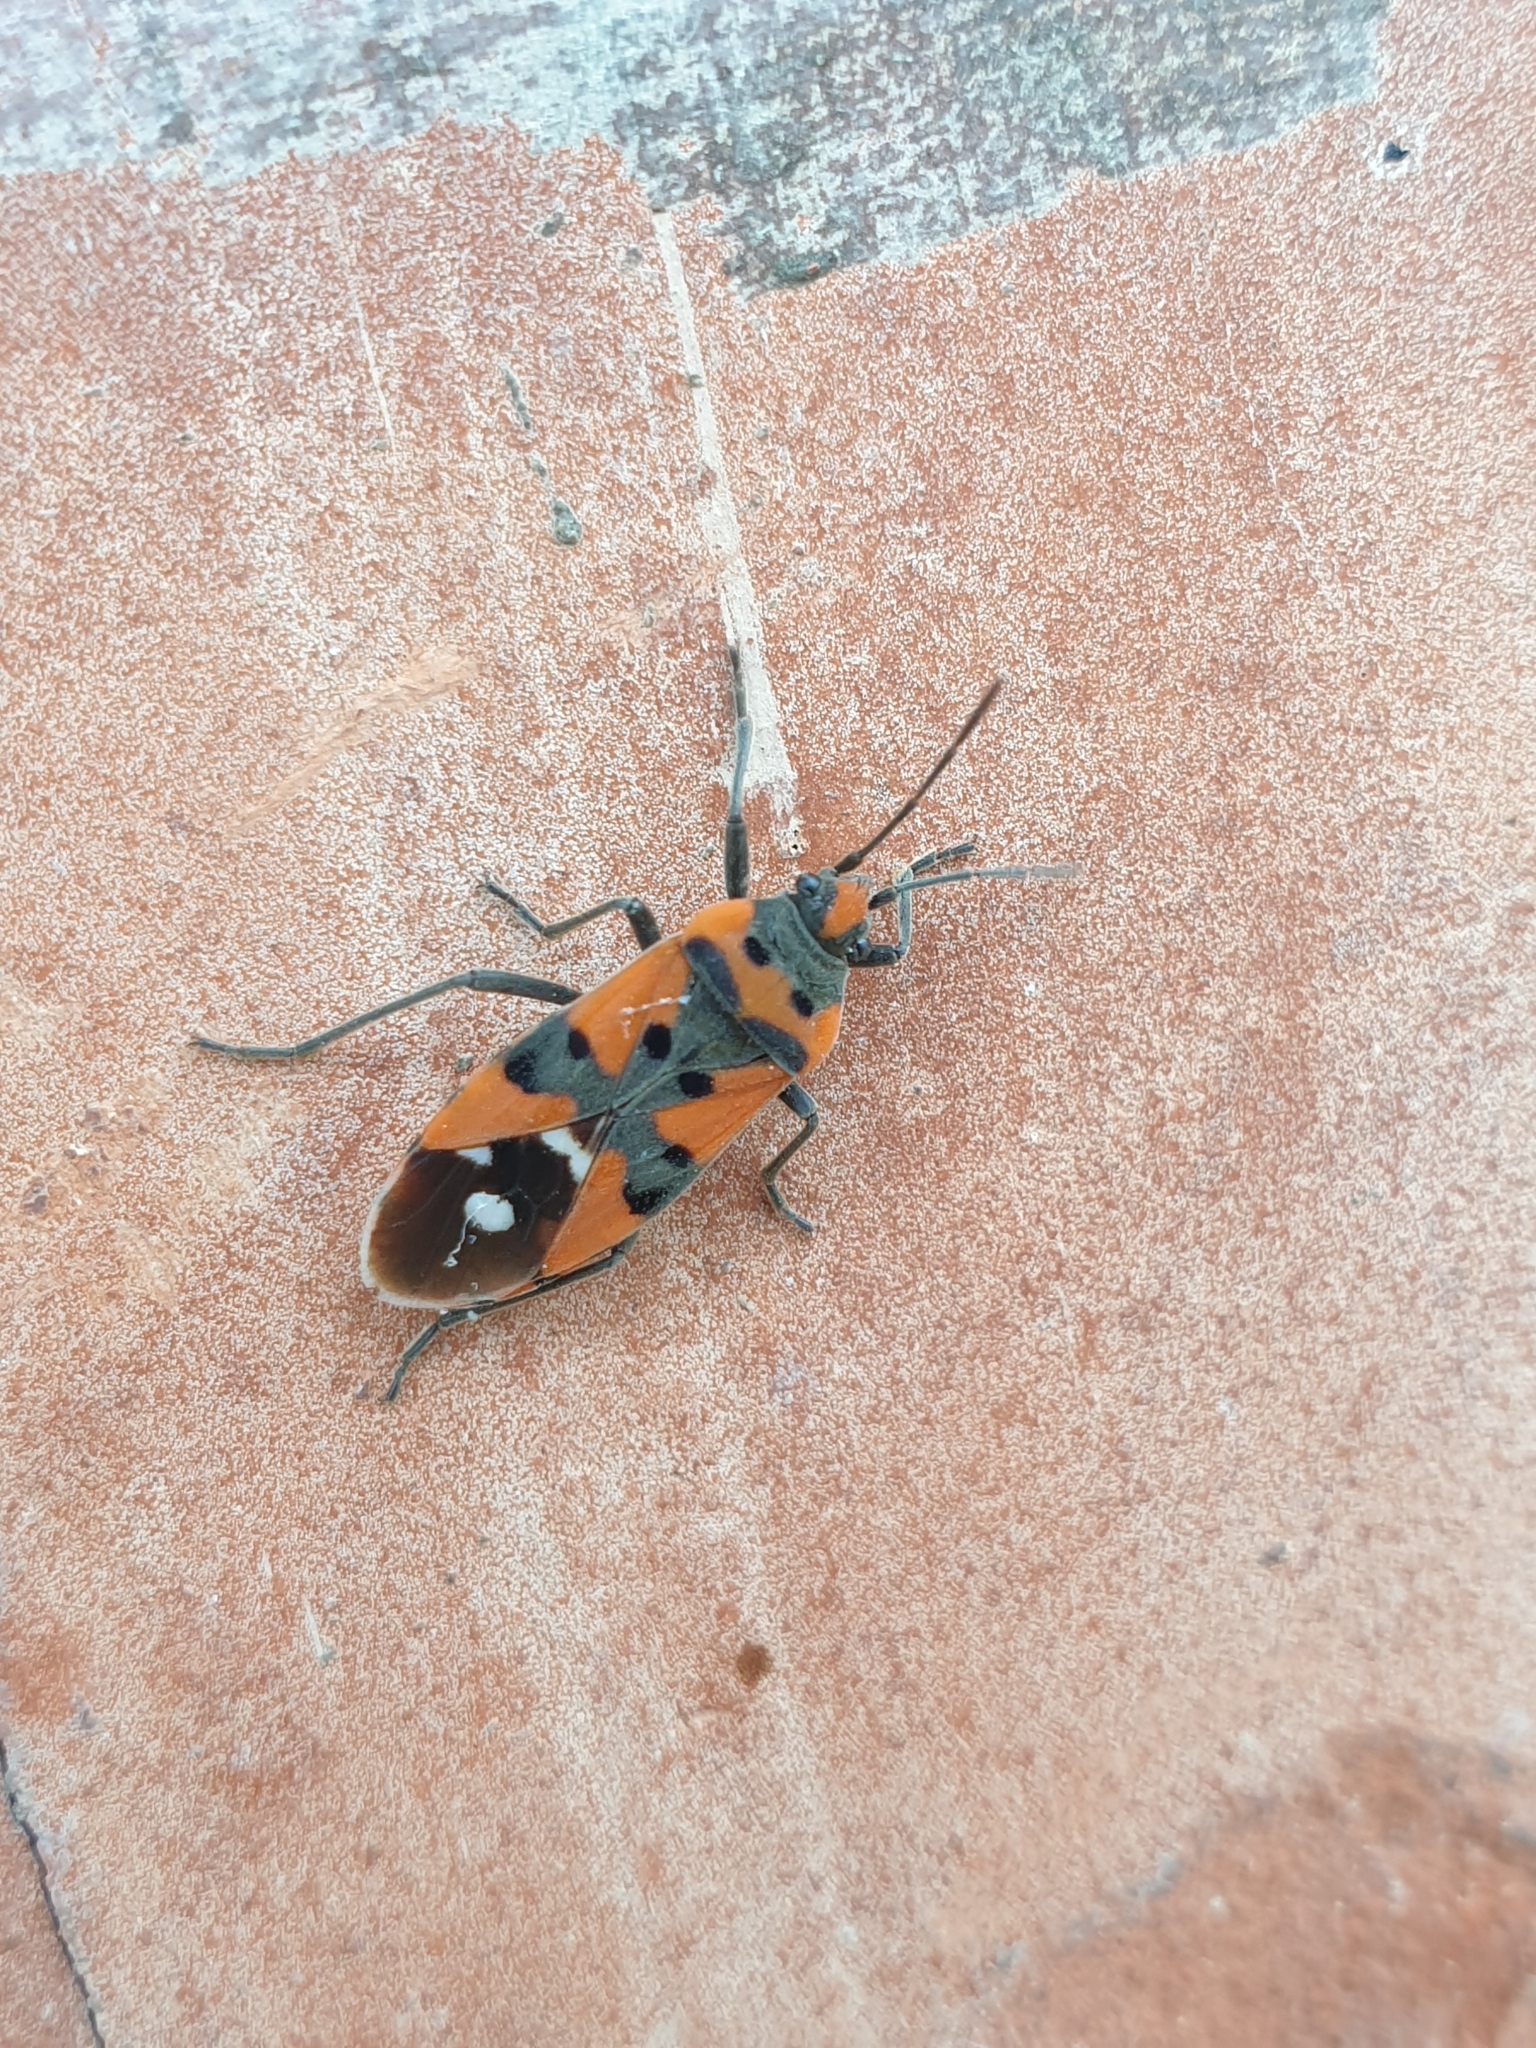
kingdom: Animalia
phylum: Arthropoda
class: Insecta
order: Hemiptera
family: Lygaeidae
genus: Lygaeus
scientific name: Lygaeus equestris
